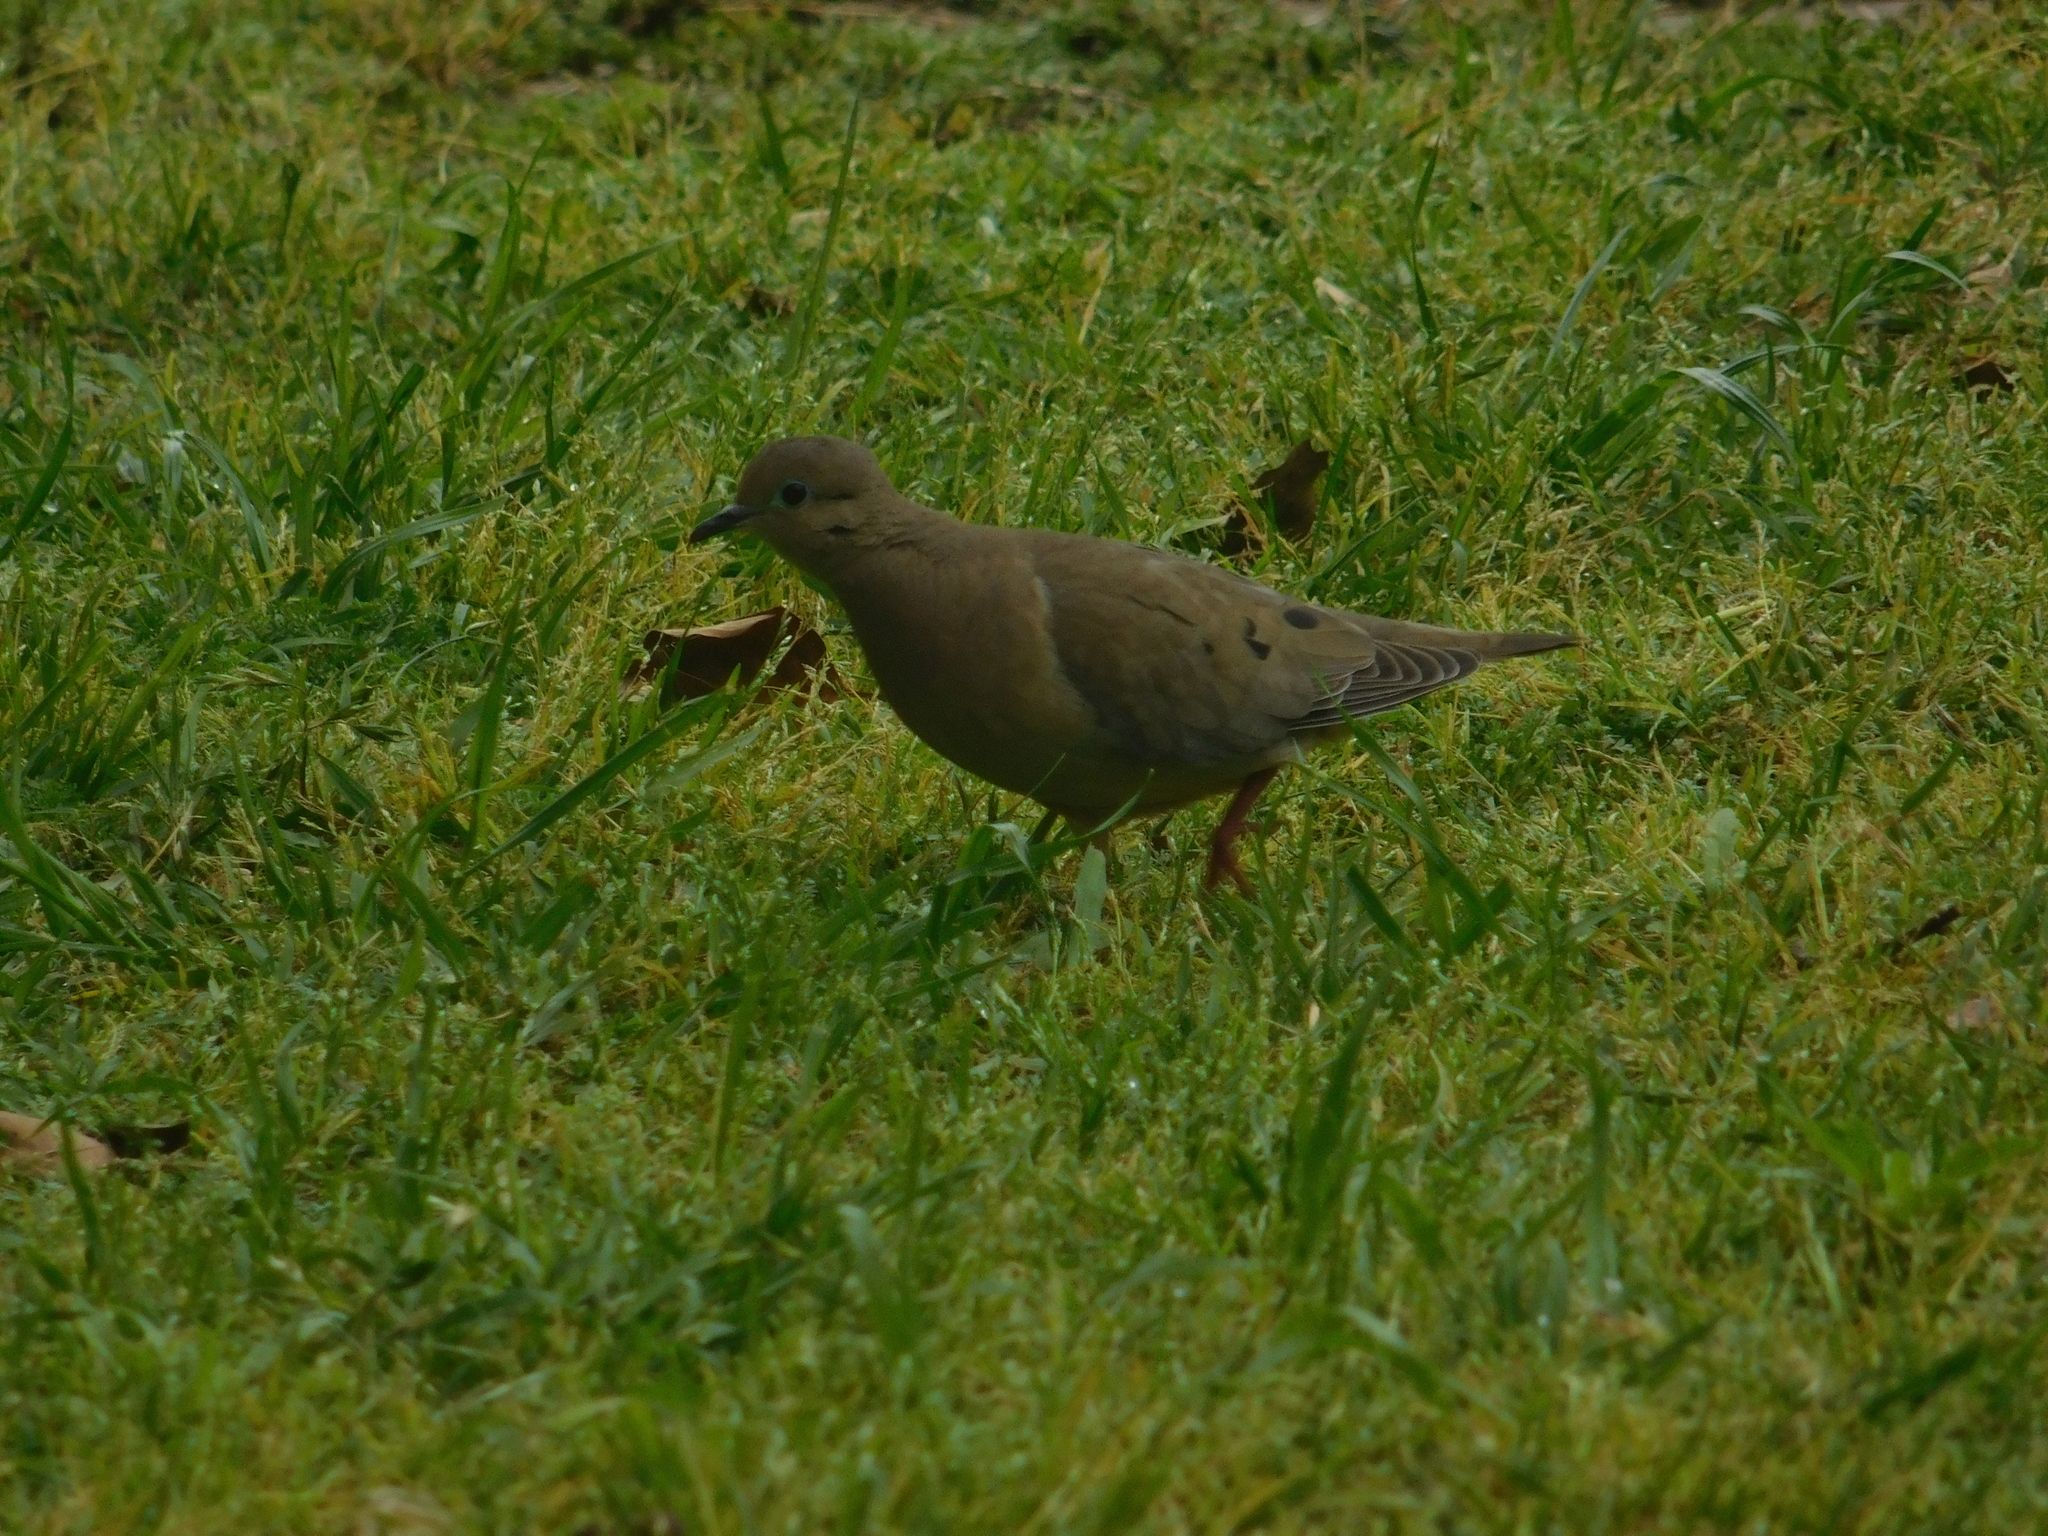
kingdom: Animalia
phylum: Chordata
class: Aves
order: Columbiformes
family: Columbidae
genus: Zenaida
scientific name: Zenaida auriculata
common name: Eared dove
